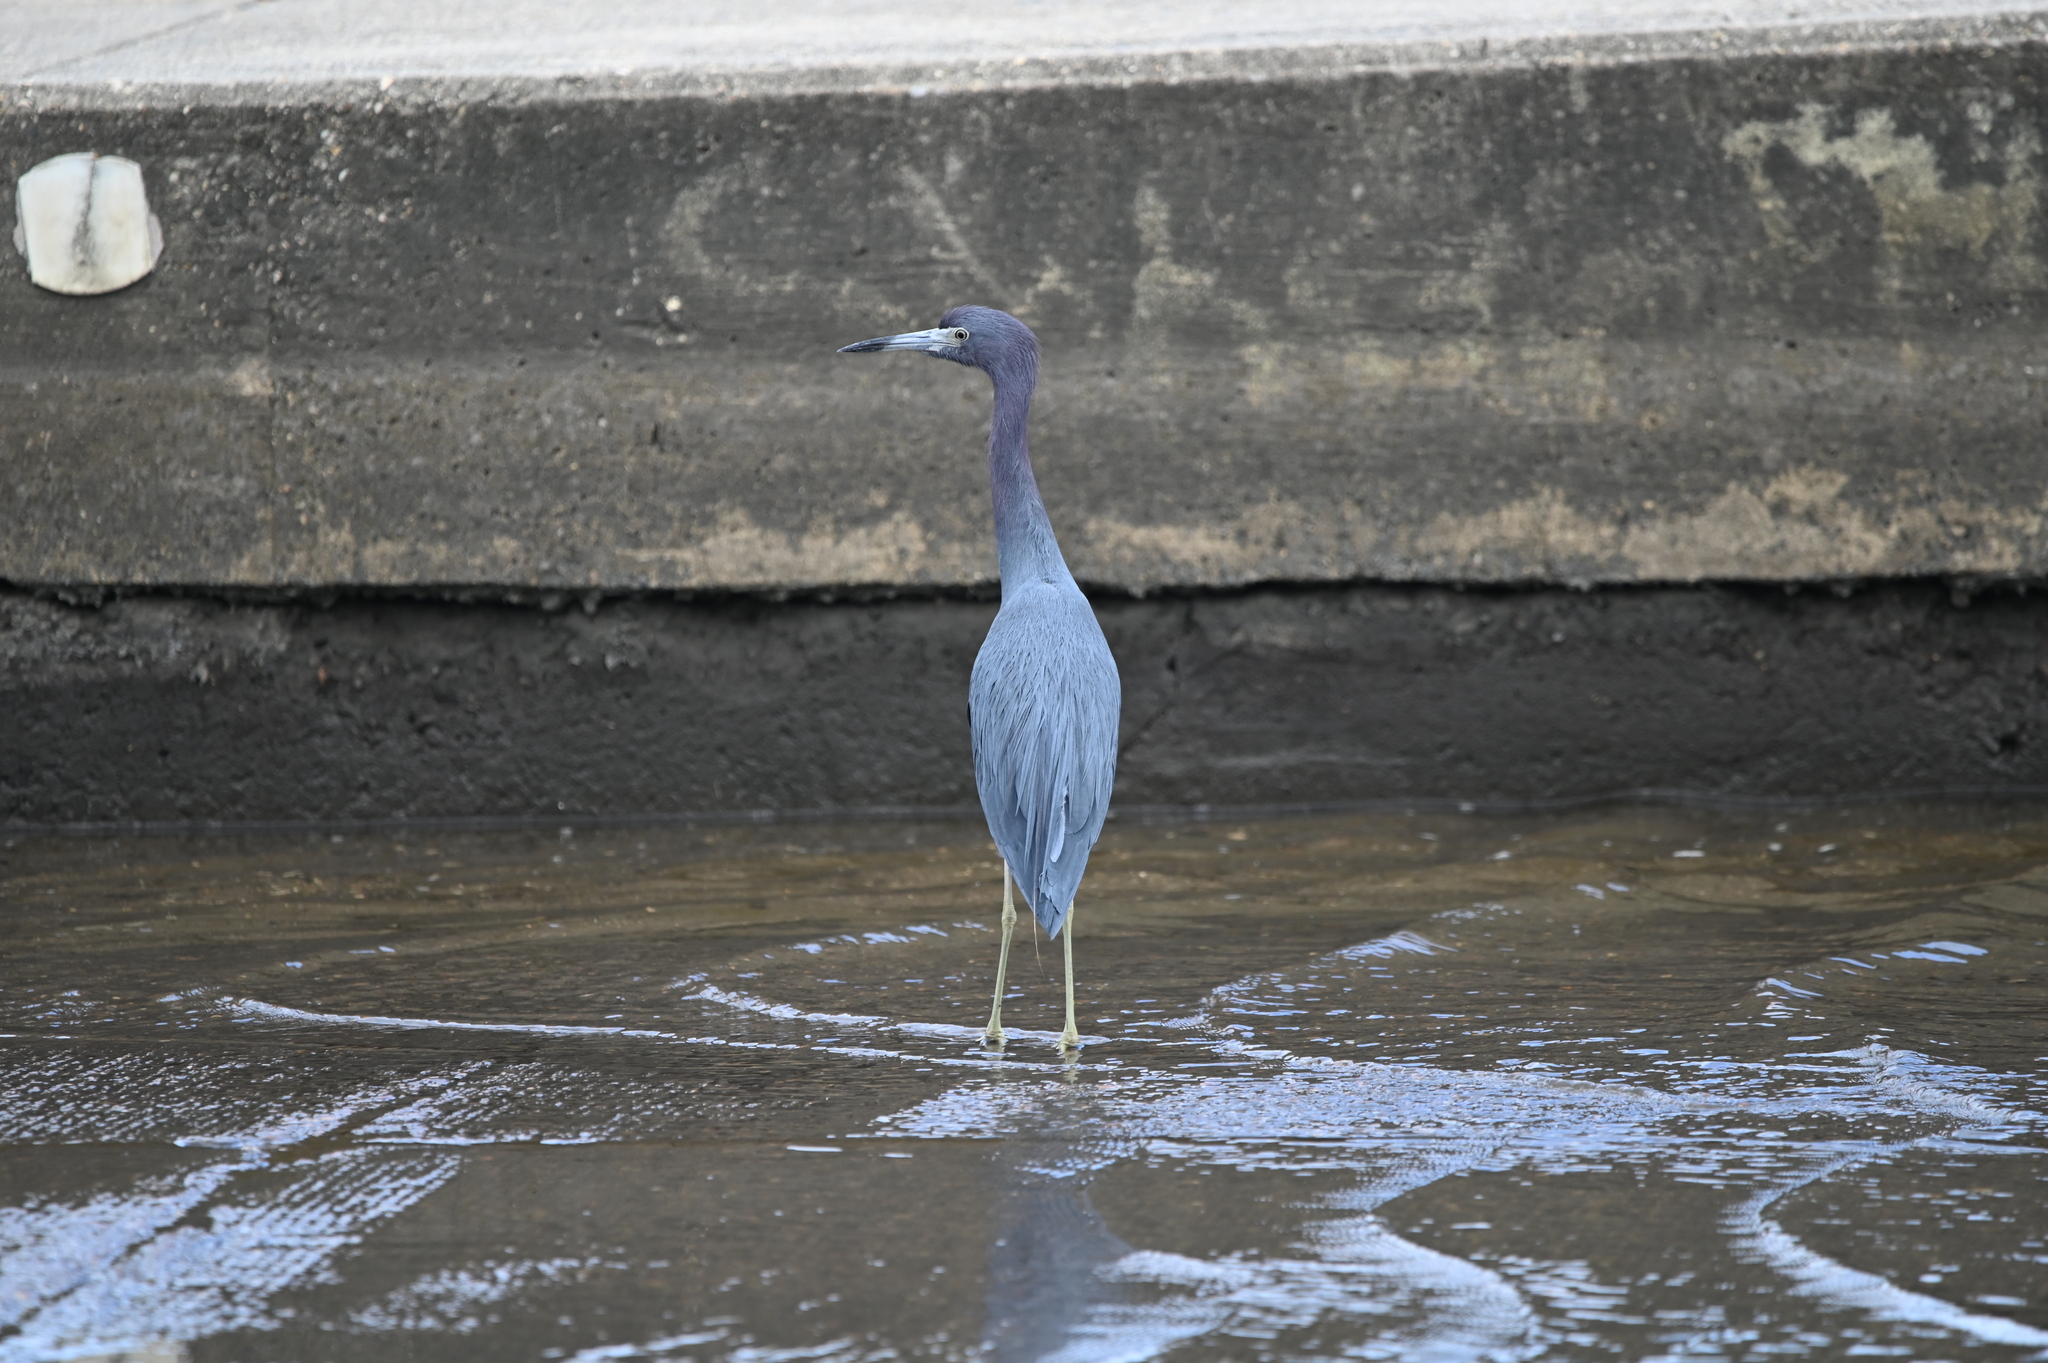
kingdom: Animalia
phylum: Chordata
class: Aves
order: Pelecaniformes
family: Ardeidae
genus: Egretta
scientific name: Egretta caerulea
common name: Little blue heron
